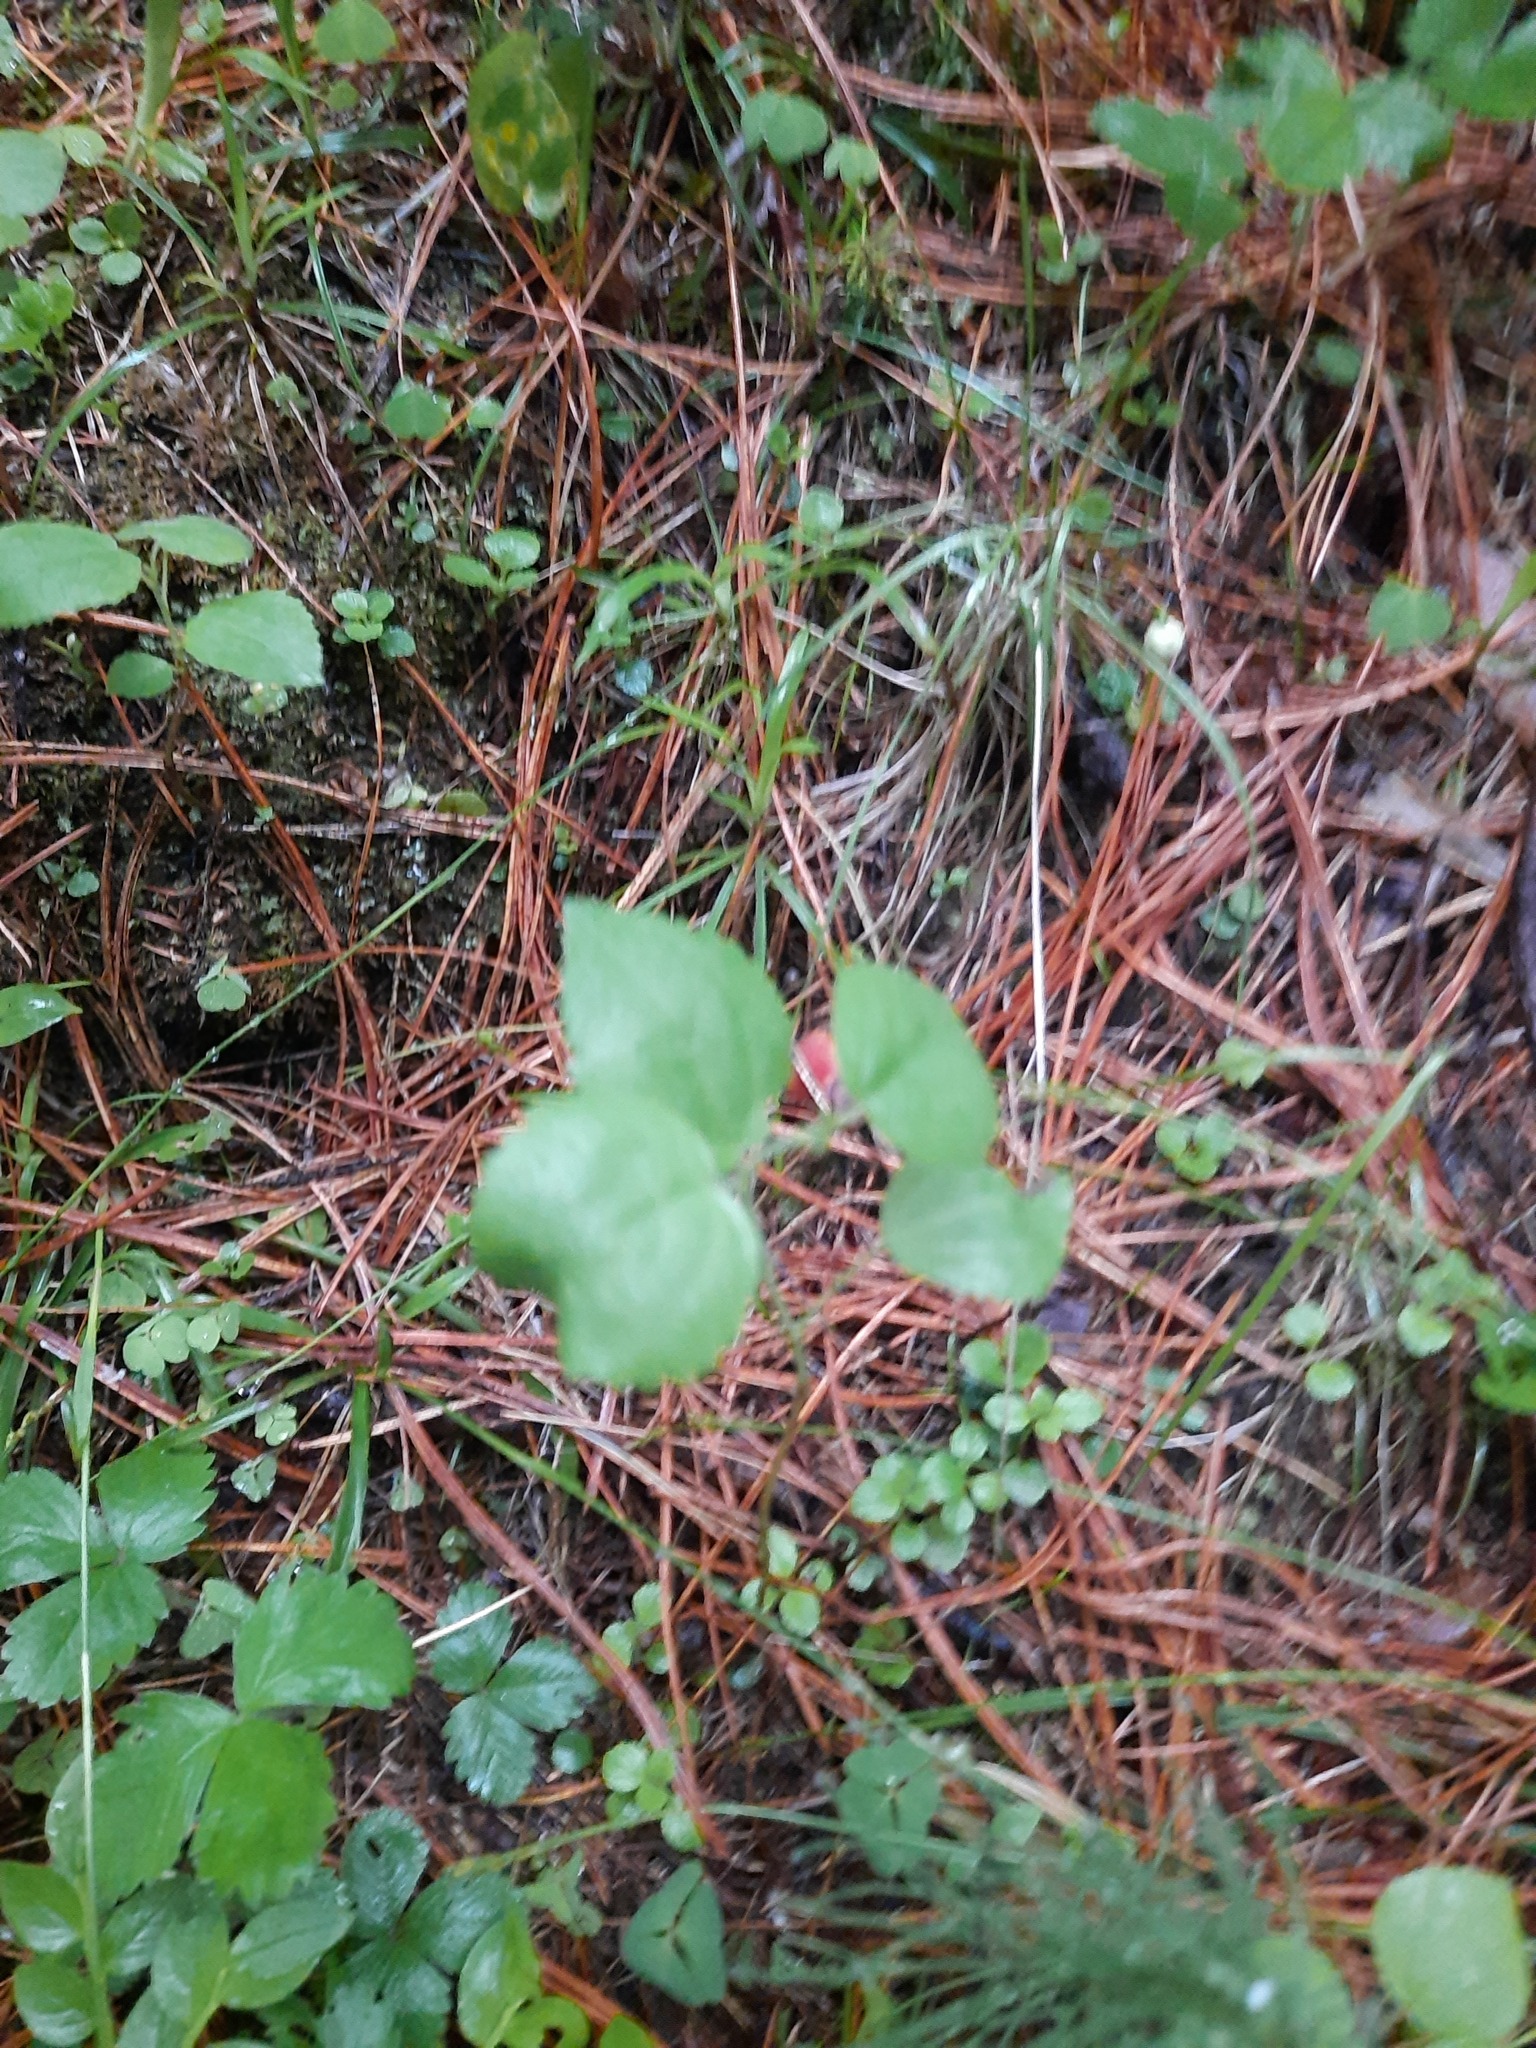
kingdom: Plantae
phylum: Tracheophyta
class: Magnoliopsida
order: Ericales
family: Ericaceae
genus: Orthilia
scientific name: Orthilia secunda
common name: One-sided orthilia
